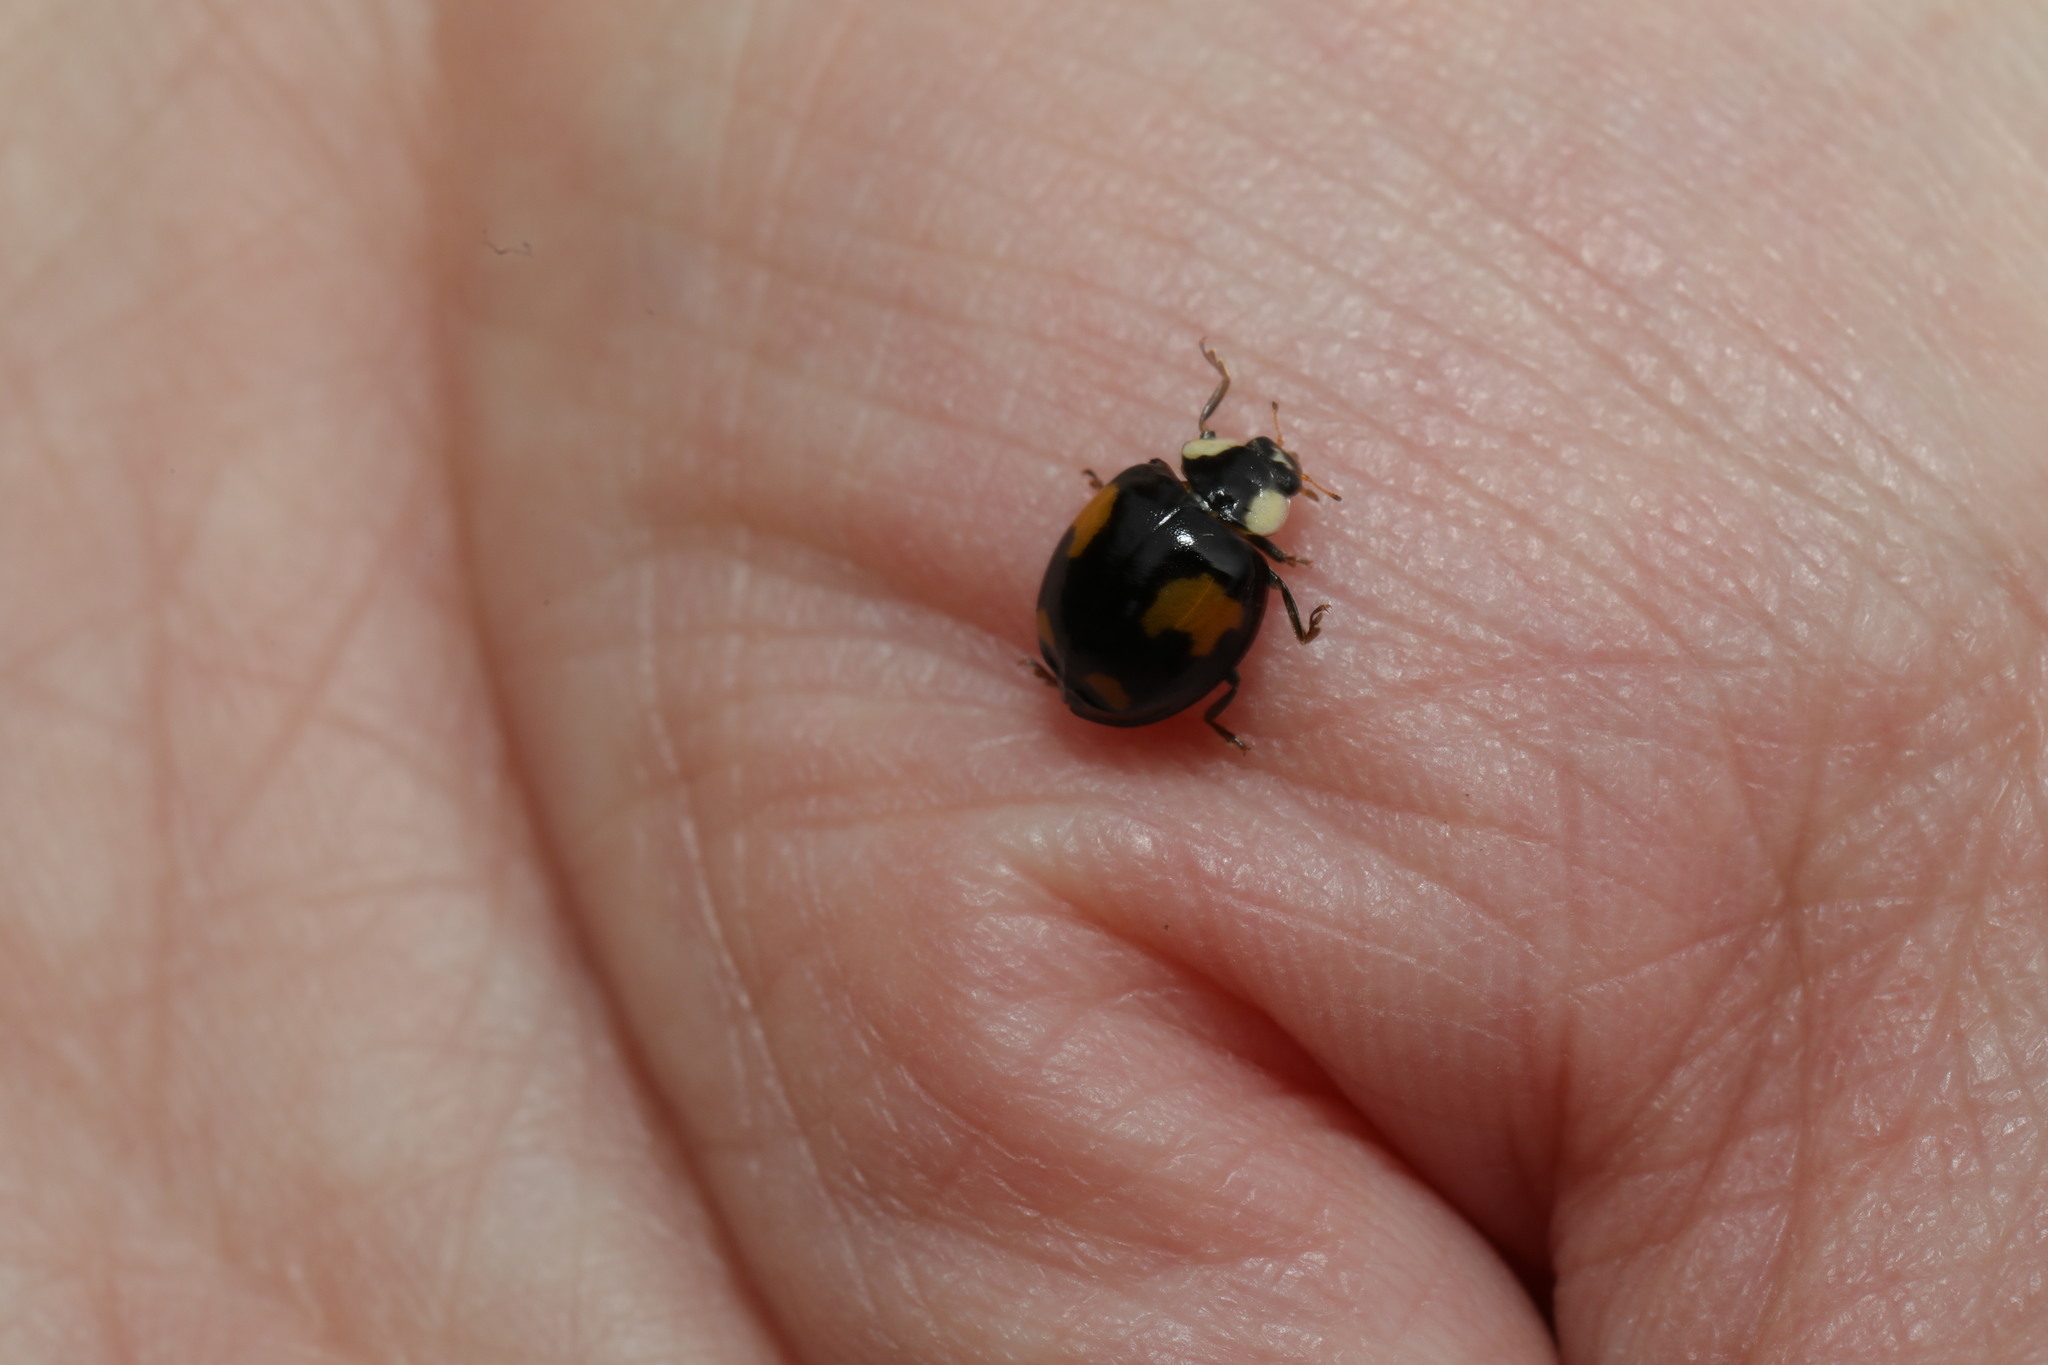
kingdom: Animalia
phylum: Arthropoda
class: Insecta
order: Coleoptera
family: Coccinellidae
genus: Harmonia
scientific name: Harmonia axyridis
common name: Harlequin ladybird
